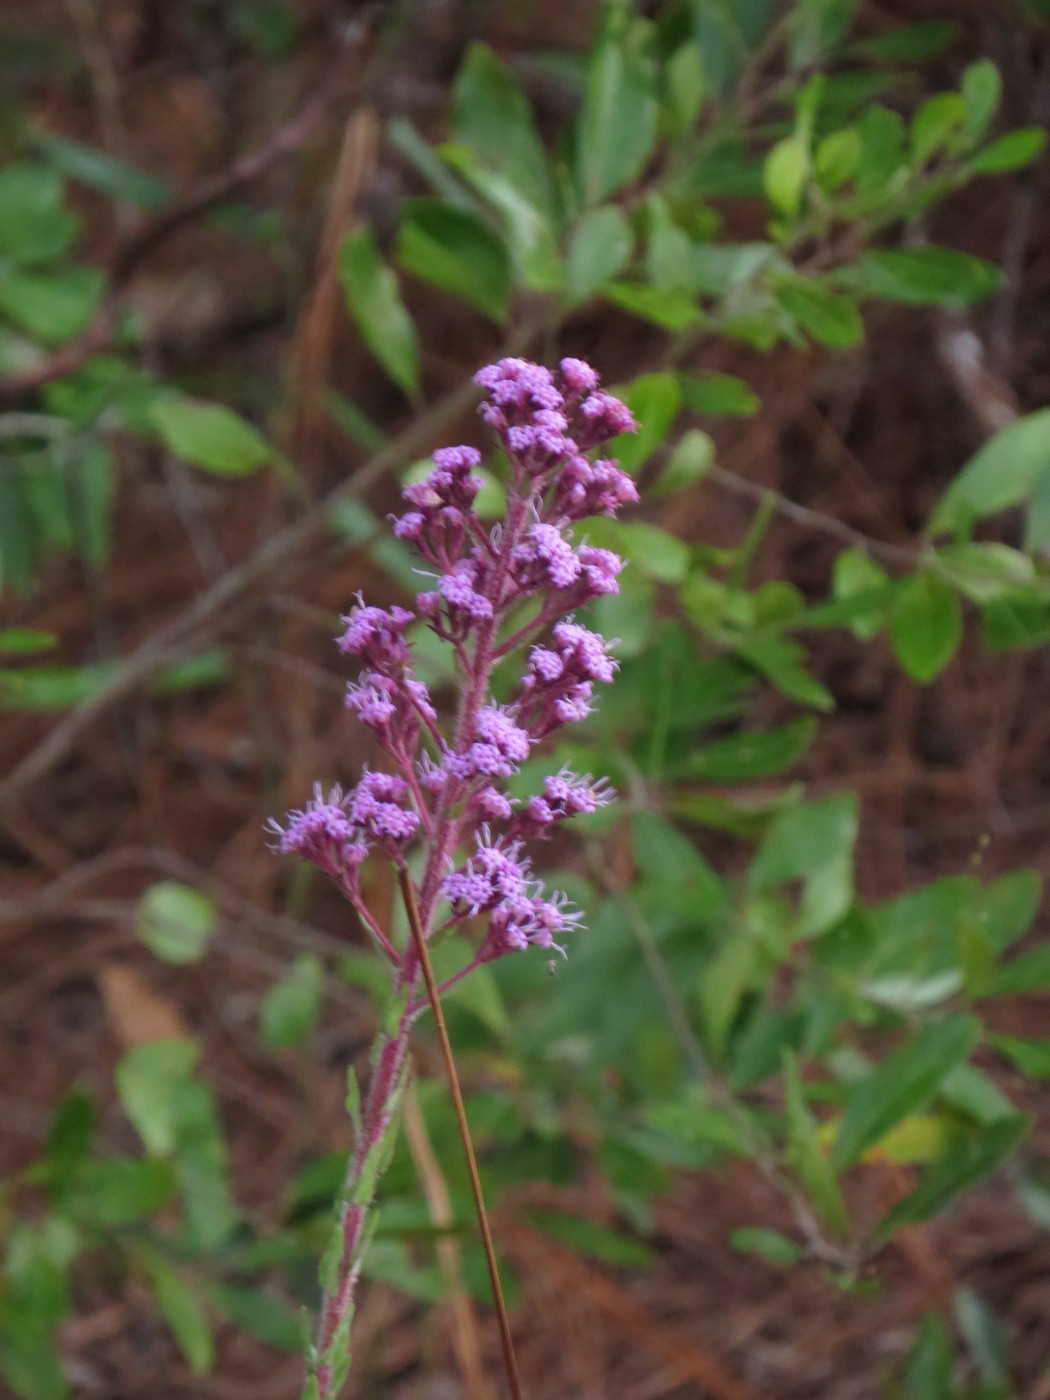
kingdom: Plantae
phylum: Tracheophyta
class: Magnoliopsida
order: Asterales
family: Asteraceae
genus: Carphephorus
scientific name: Carphephorus paniculatus
